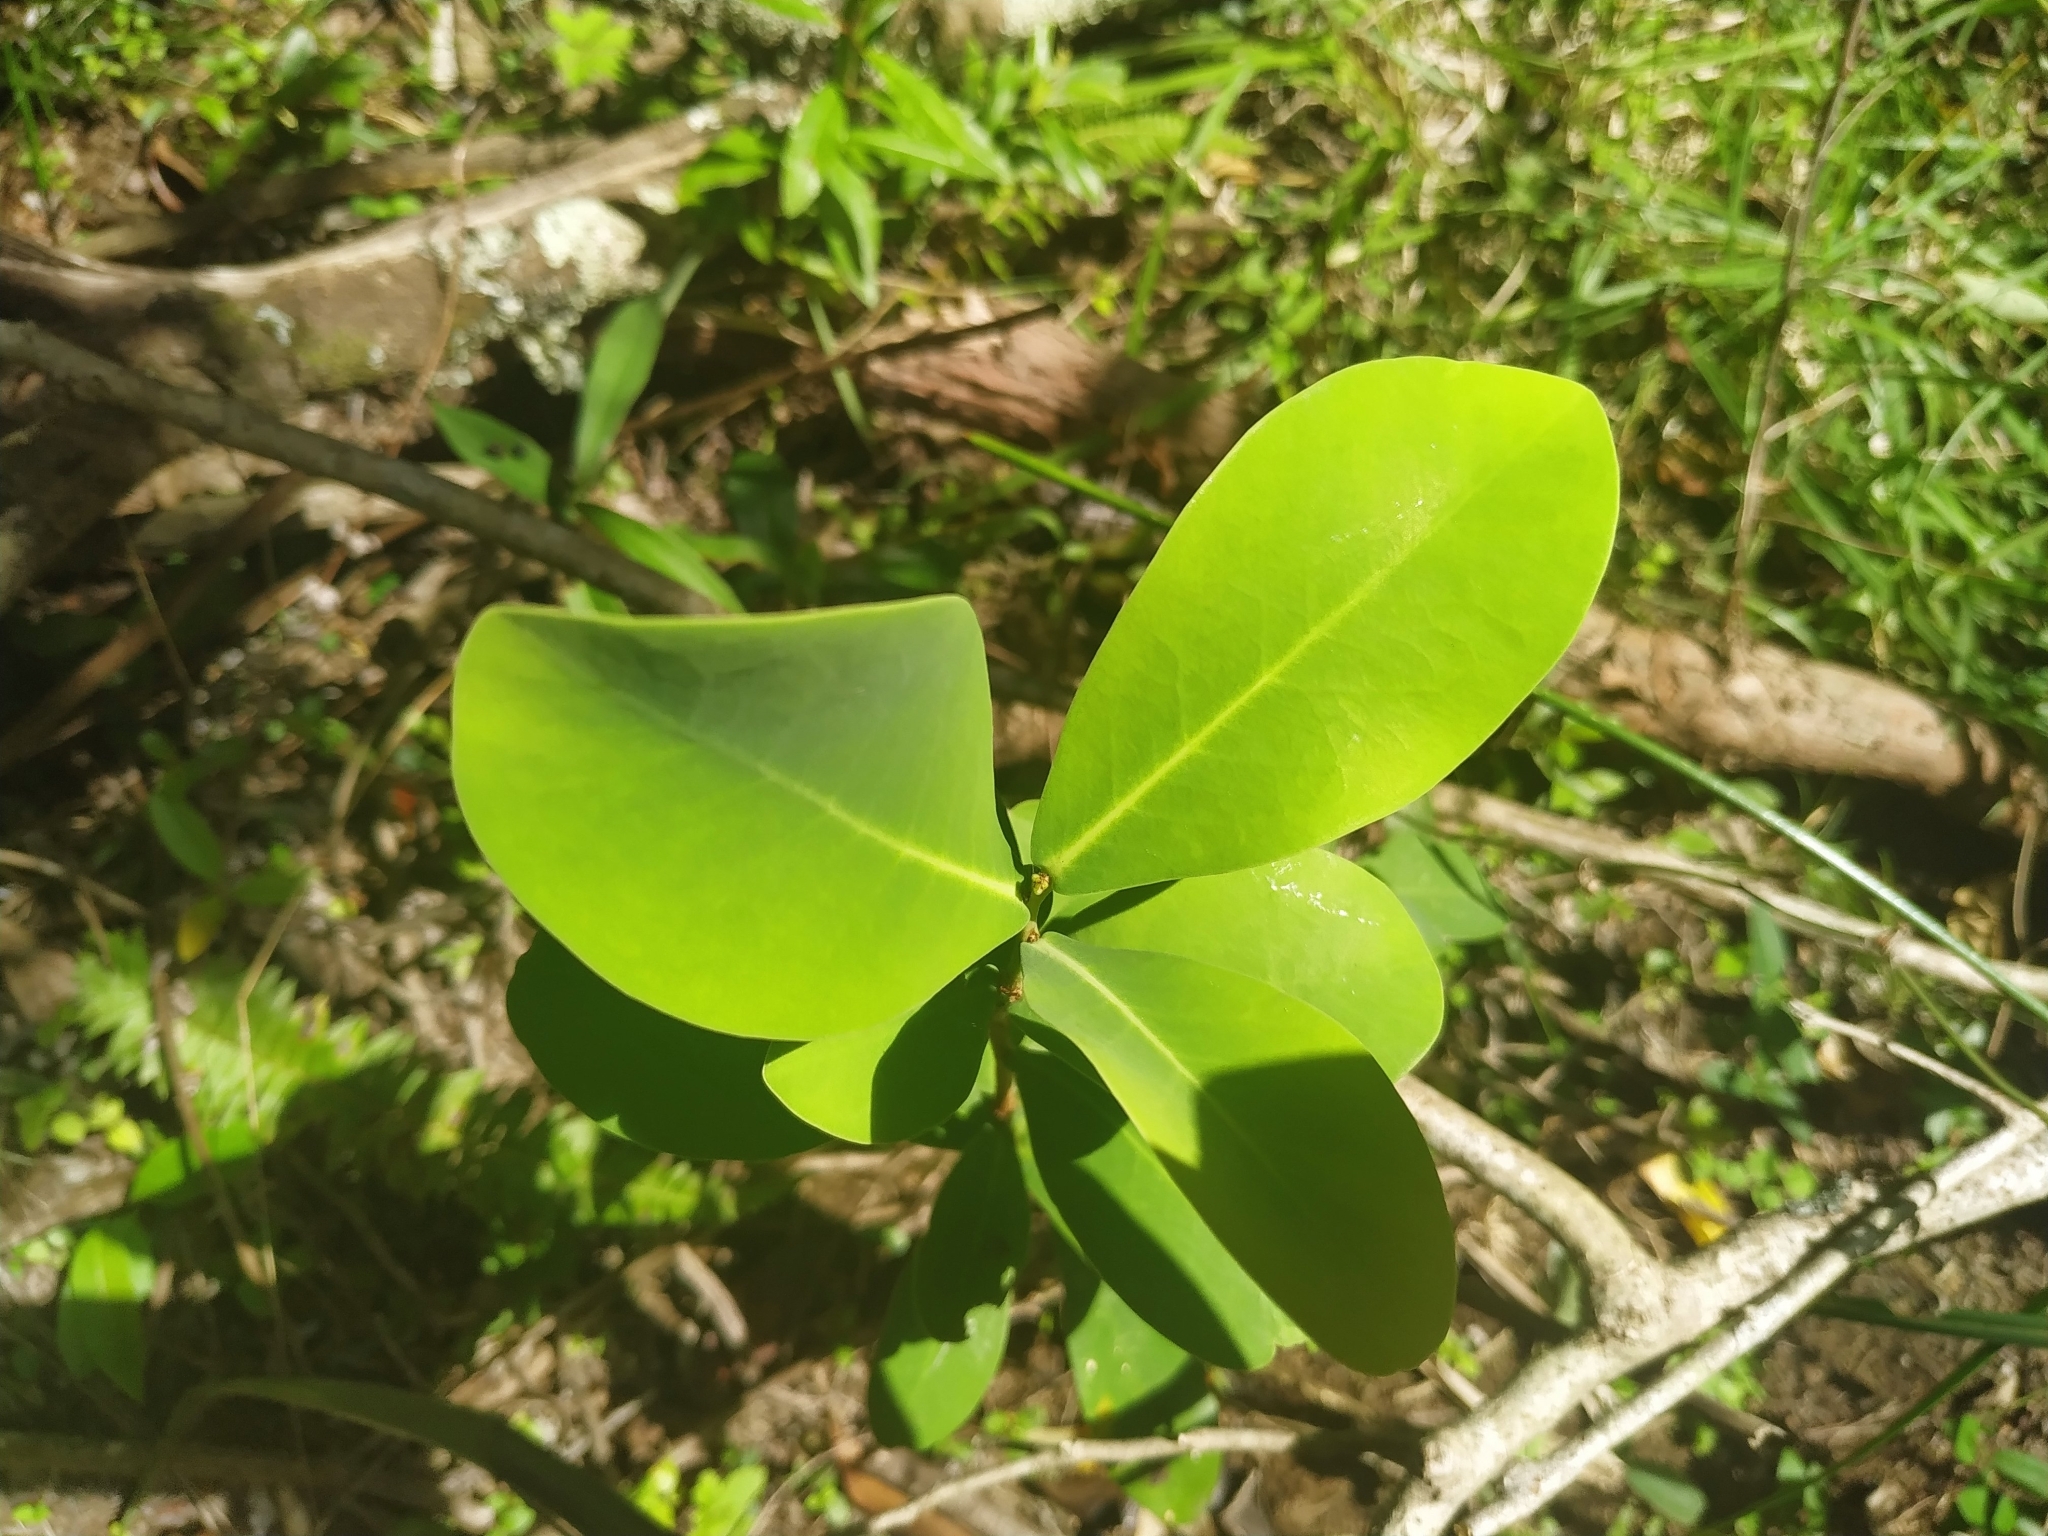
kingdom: Plantae
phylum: Tracheophyta
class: Magnoliopsida
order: Malvales
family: Thymelaeaceae
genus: Daphnopsis
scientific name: Daphnopsis racemosa
